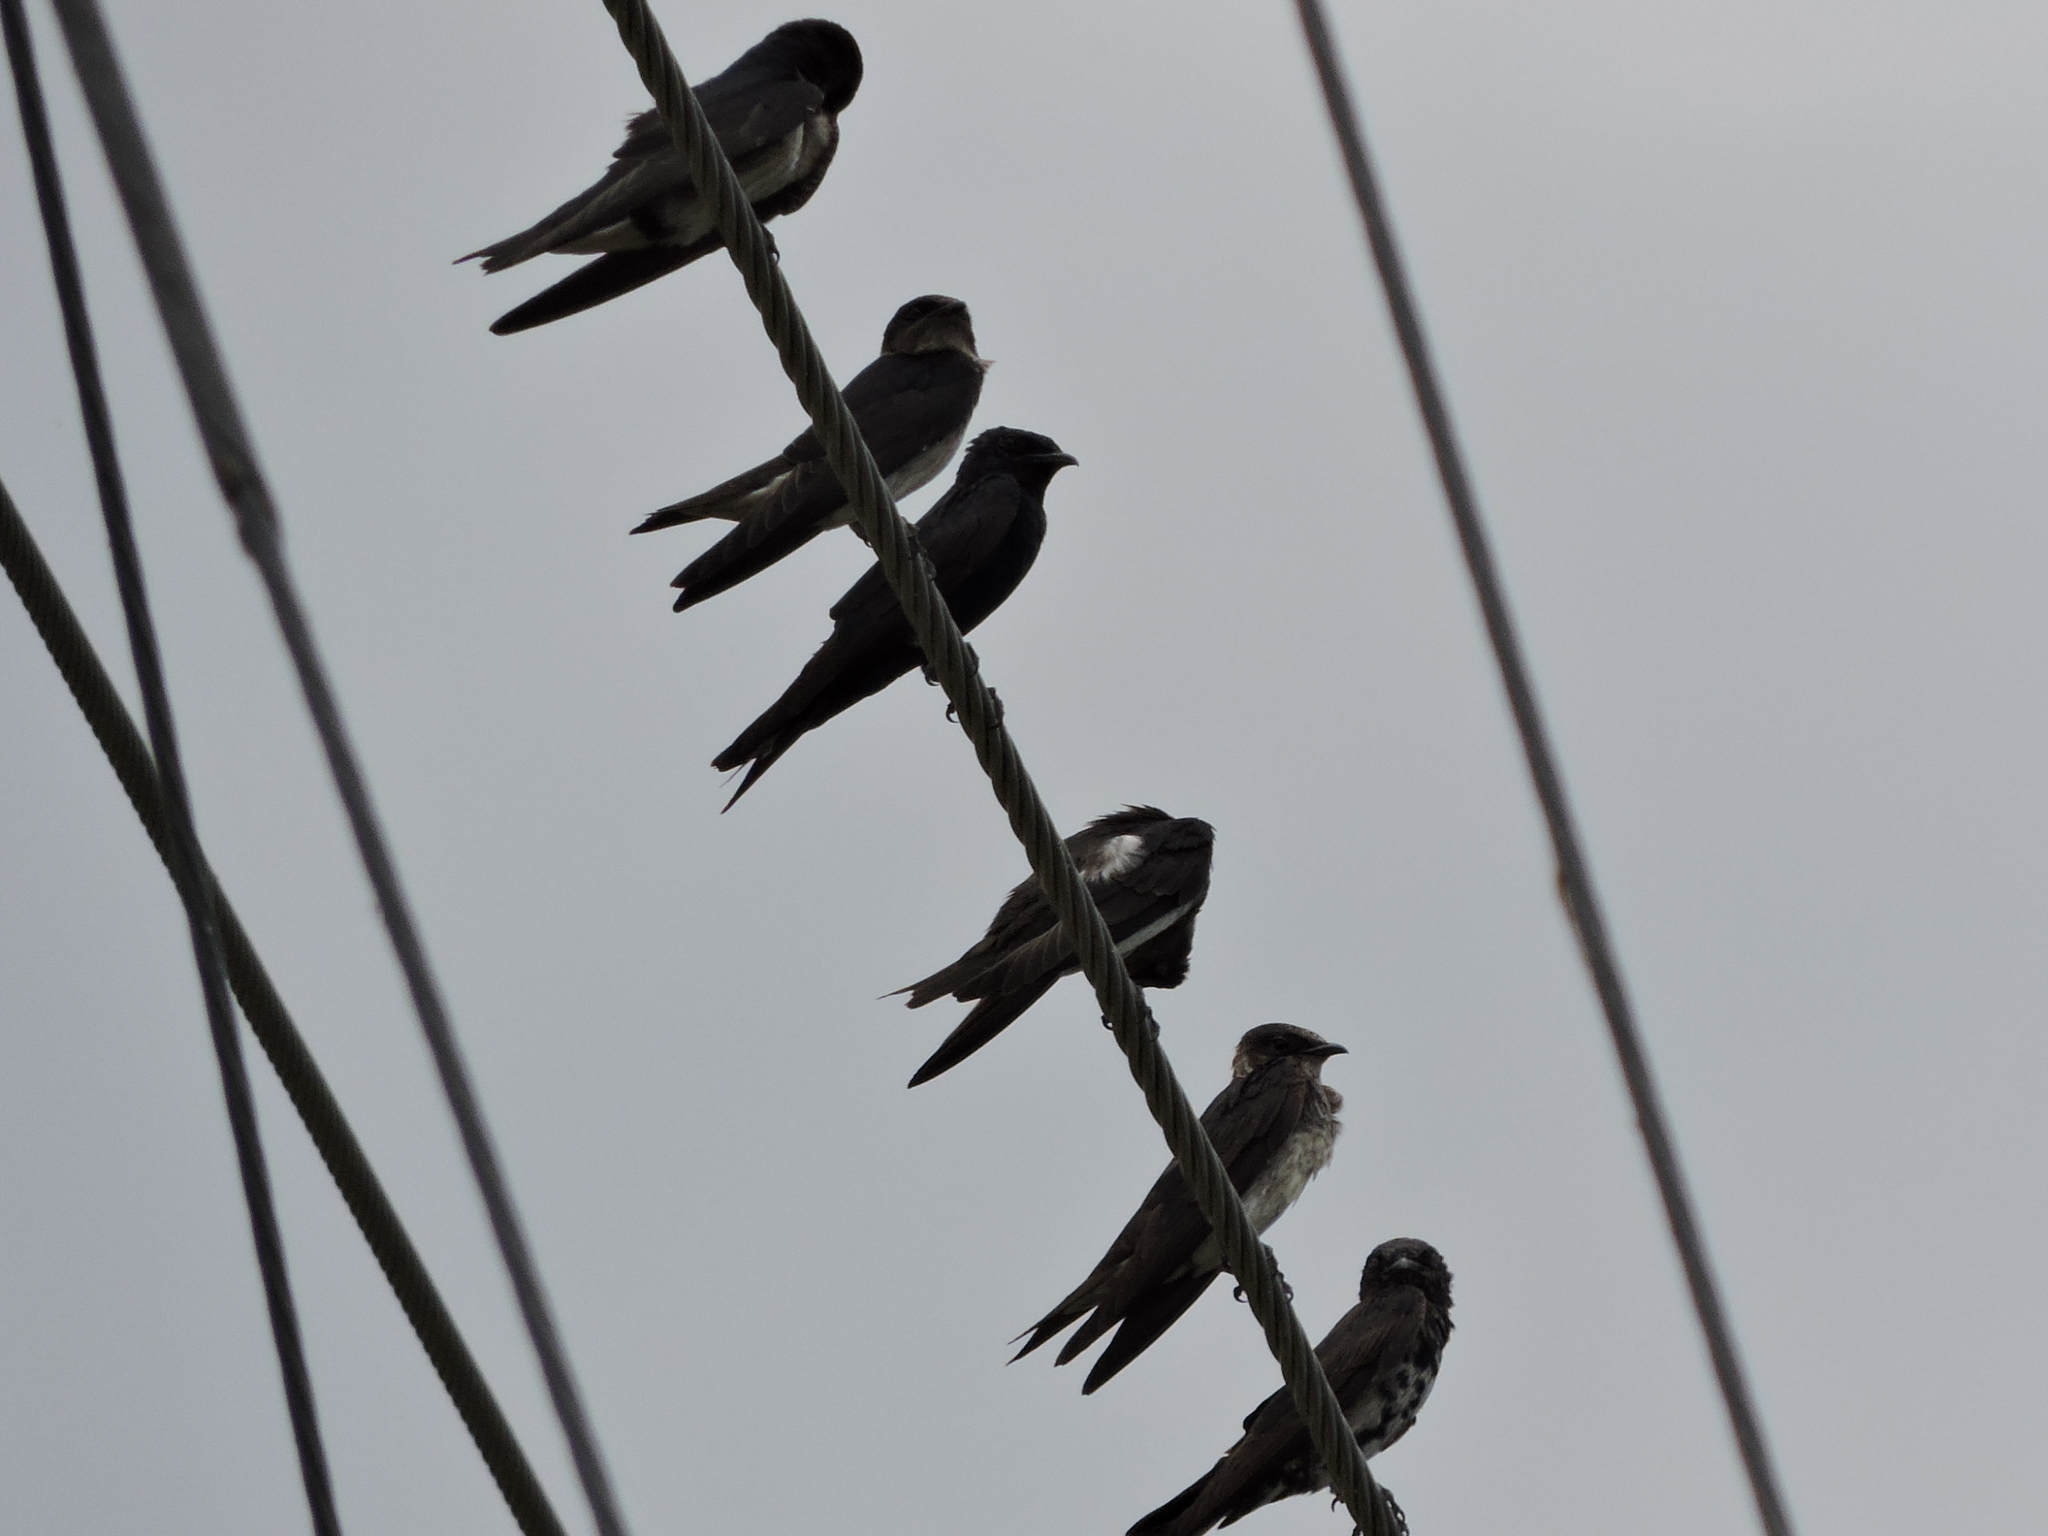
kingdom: Animalia
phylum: Chordata
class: Aves
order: Passeriformes
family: Hirundinidae
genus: Hirundo
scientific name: Hirundo rustica
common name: Barn swallow
